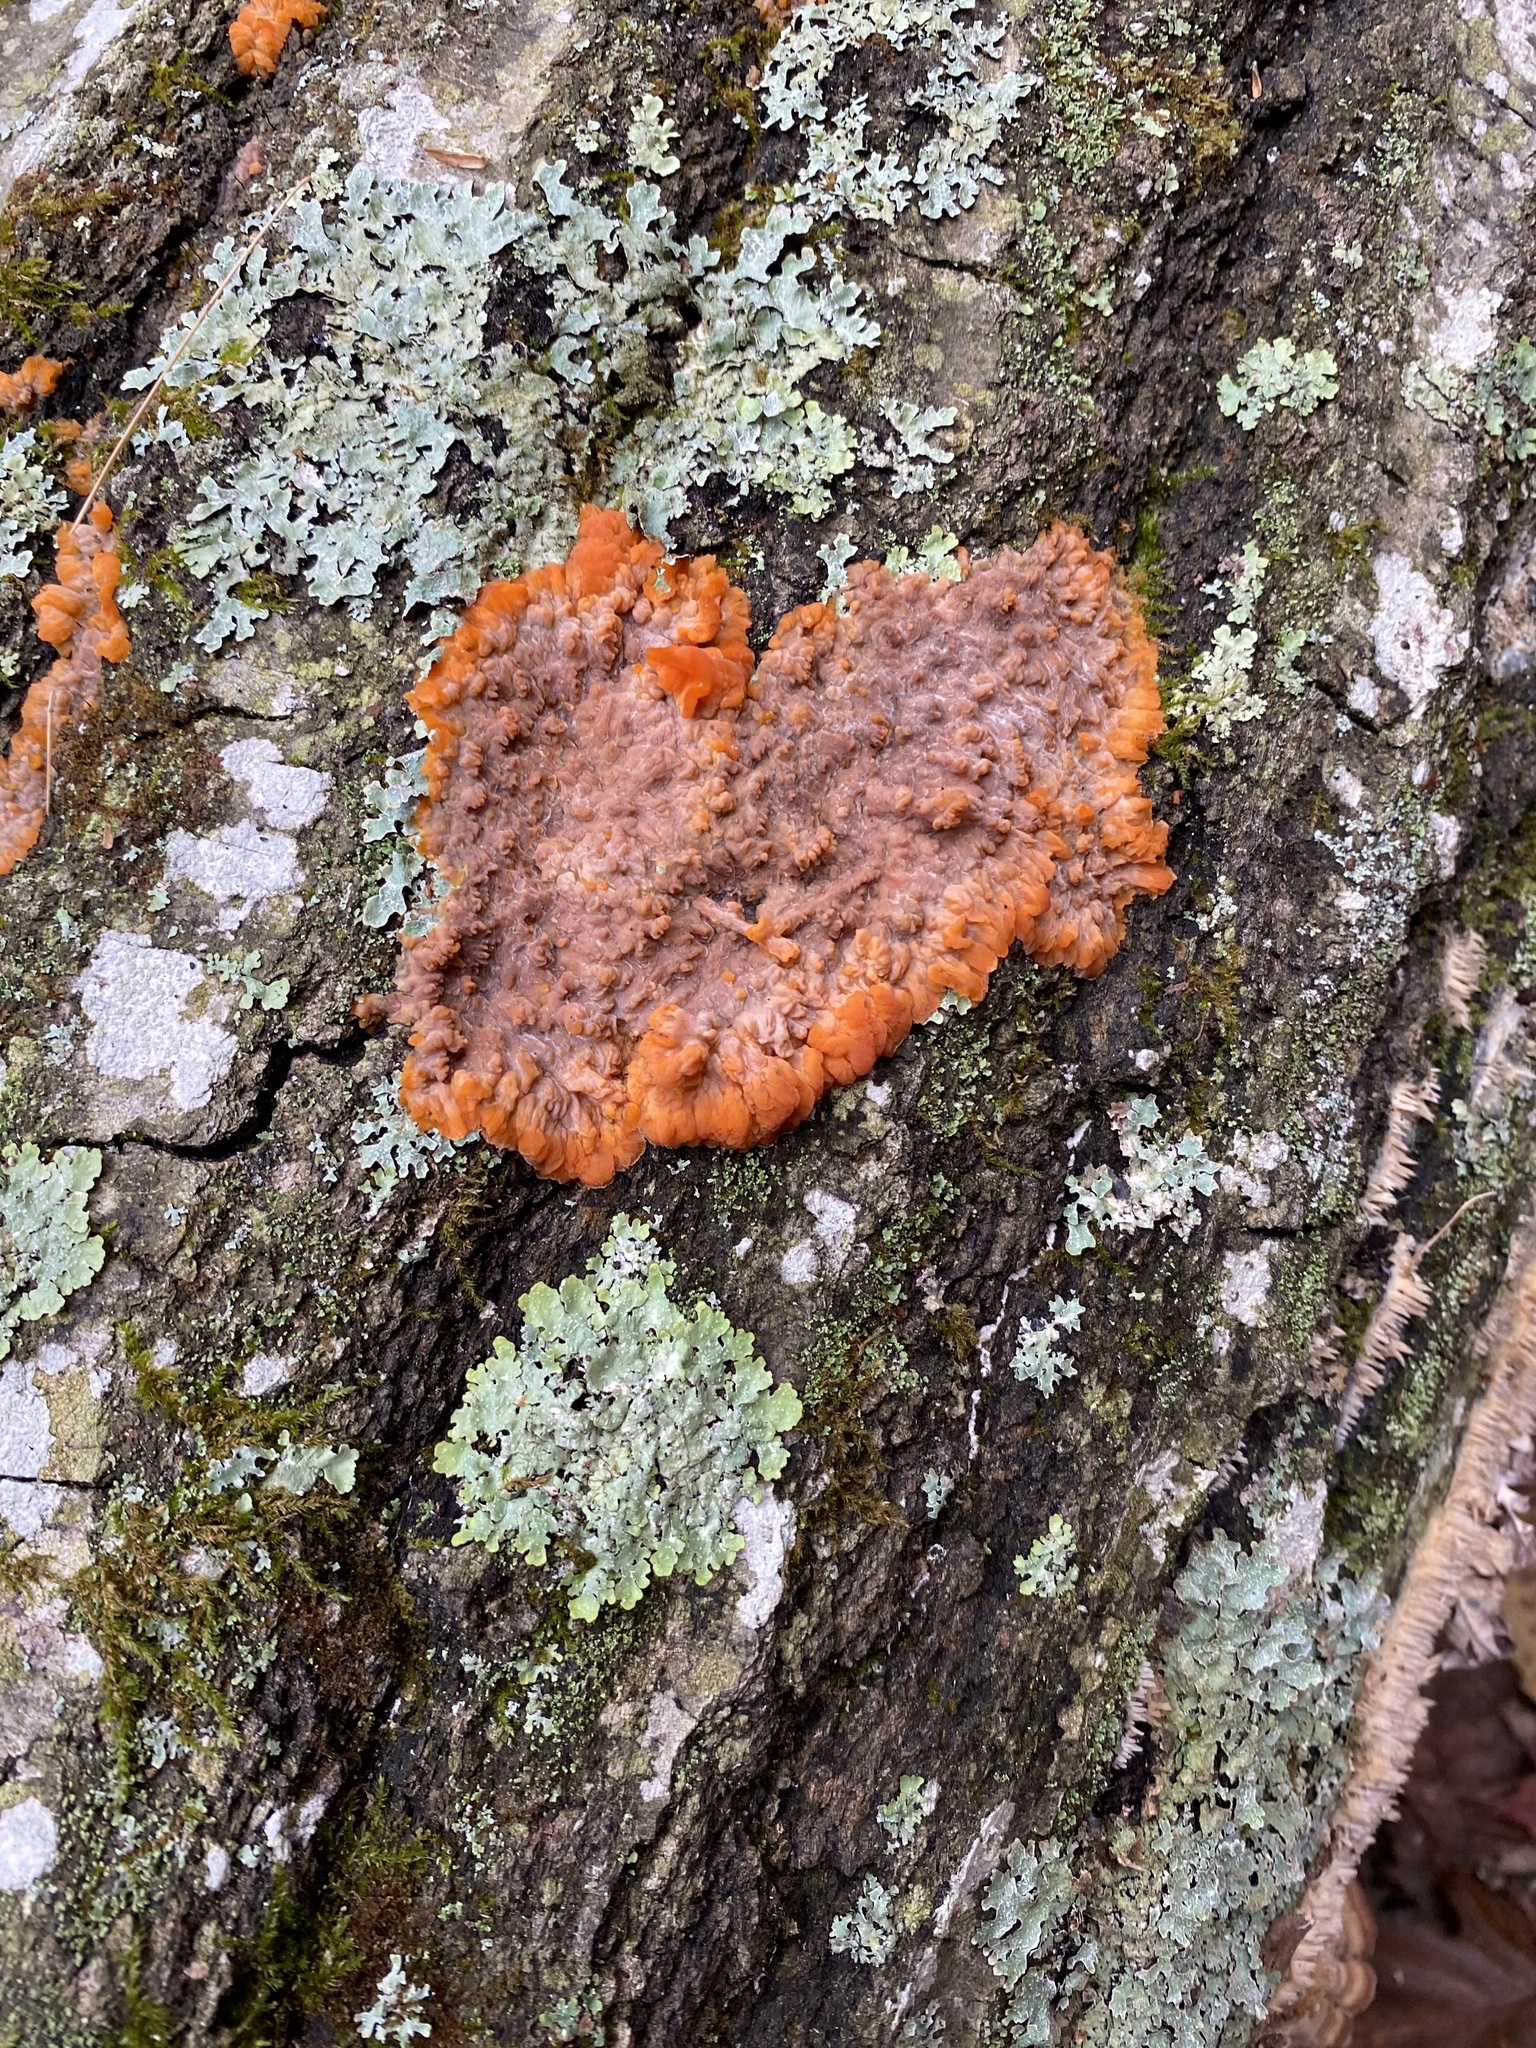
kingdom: Fungi
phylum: Basidiomycota
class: Agaricomycetes
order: Polyporales
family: Meruliaceae
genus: Phlebia
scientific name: Phlebia radiata
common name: Wrinkled crust
